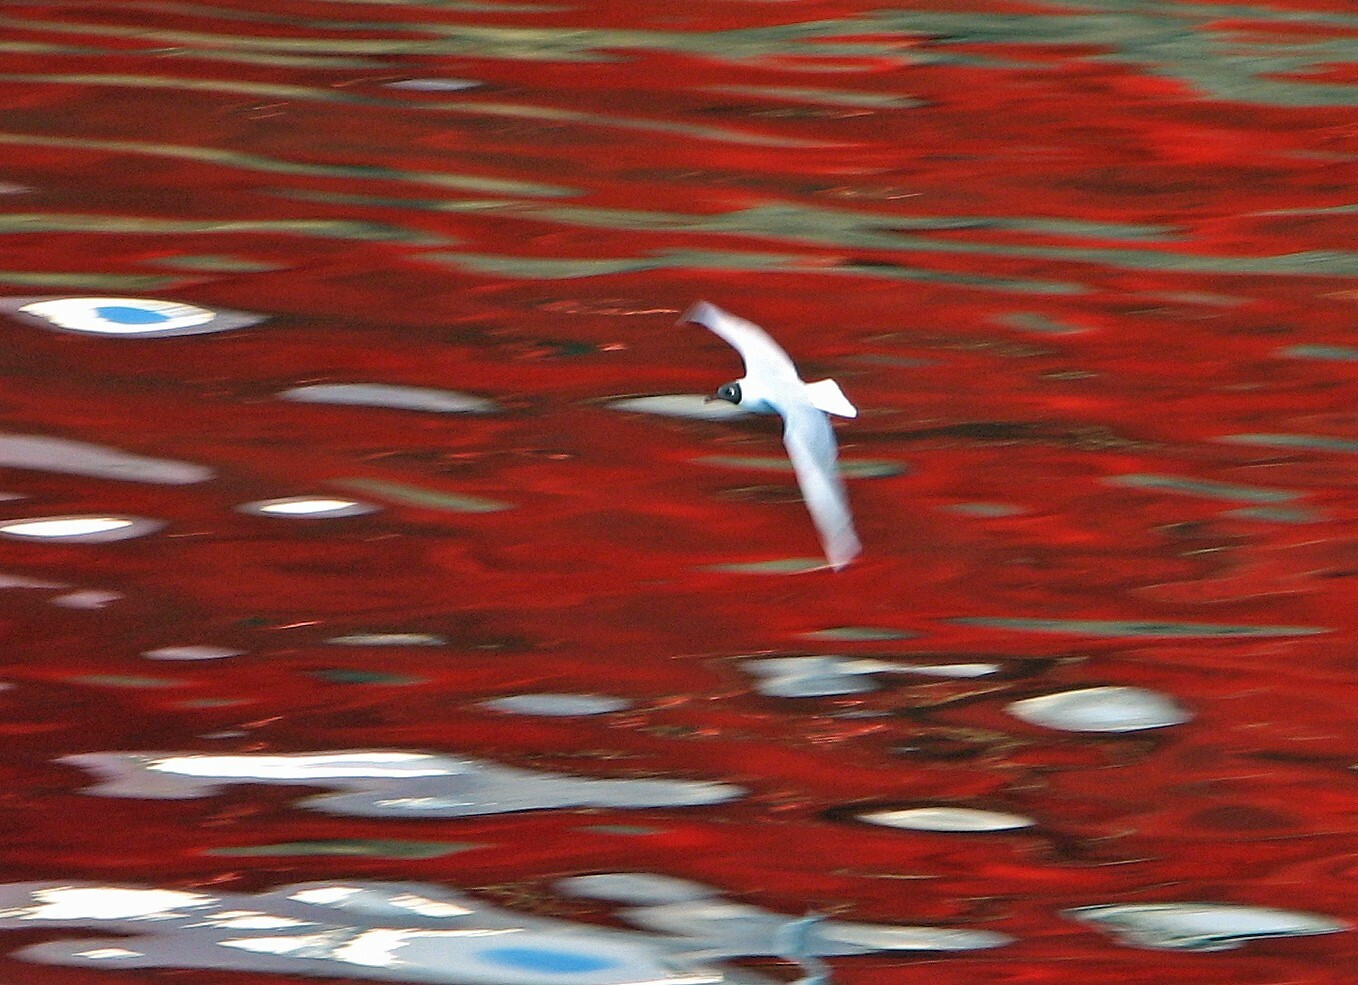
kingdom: Animalia
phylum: Chordata
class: Aves
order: Charadriiformes
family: Laridae
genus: Chroicocephalus
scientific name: Chroicocephalus maculipennis
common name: Brown-hooded gull
